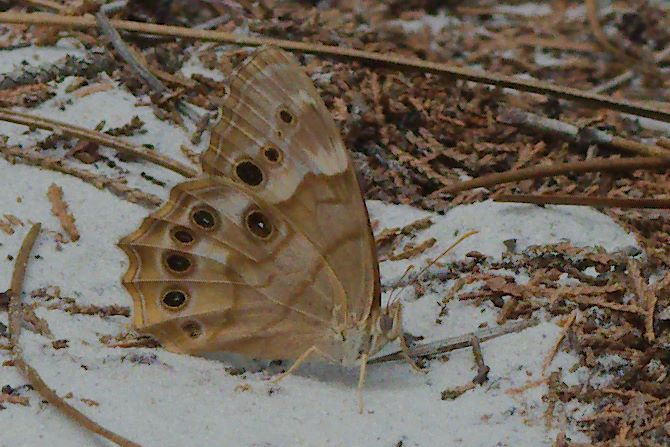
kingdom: Animalia
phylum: Arthropoda
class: Insecta
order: Lepidoptera
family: Nymphalidae
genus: Enodia
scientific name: Enodia portlandia
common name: Southern pearly-eye
